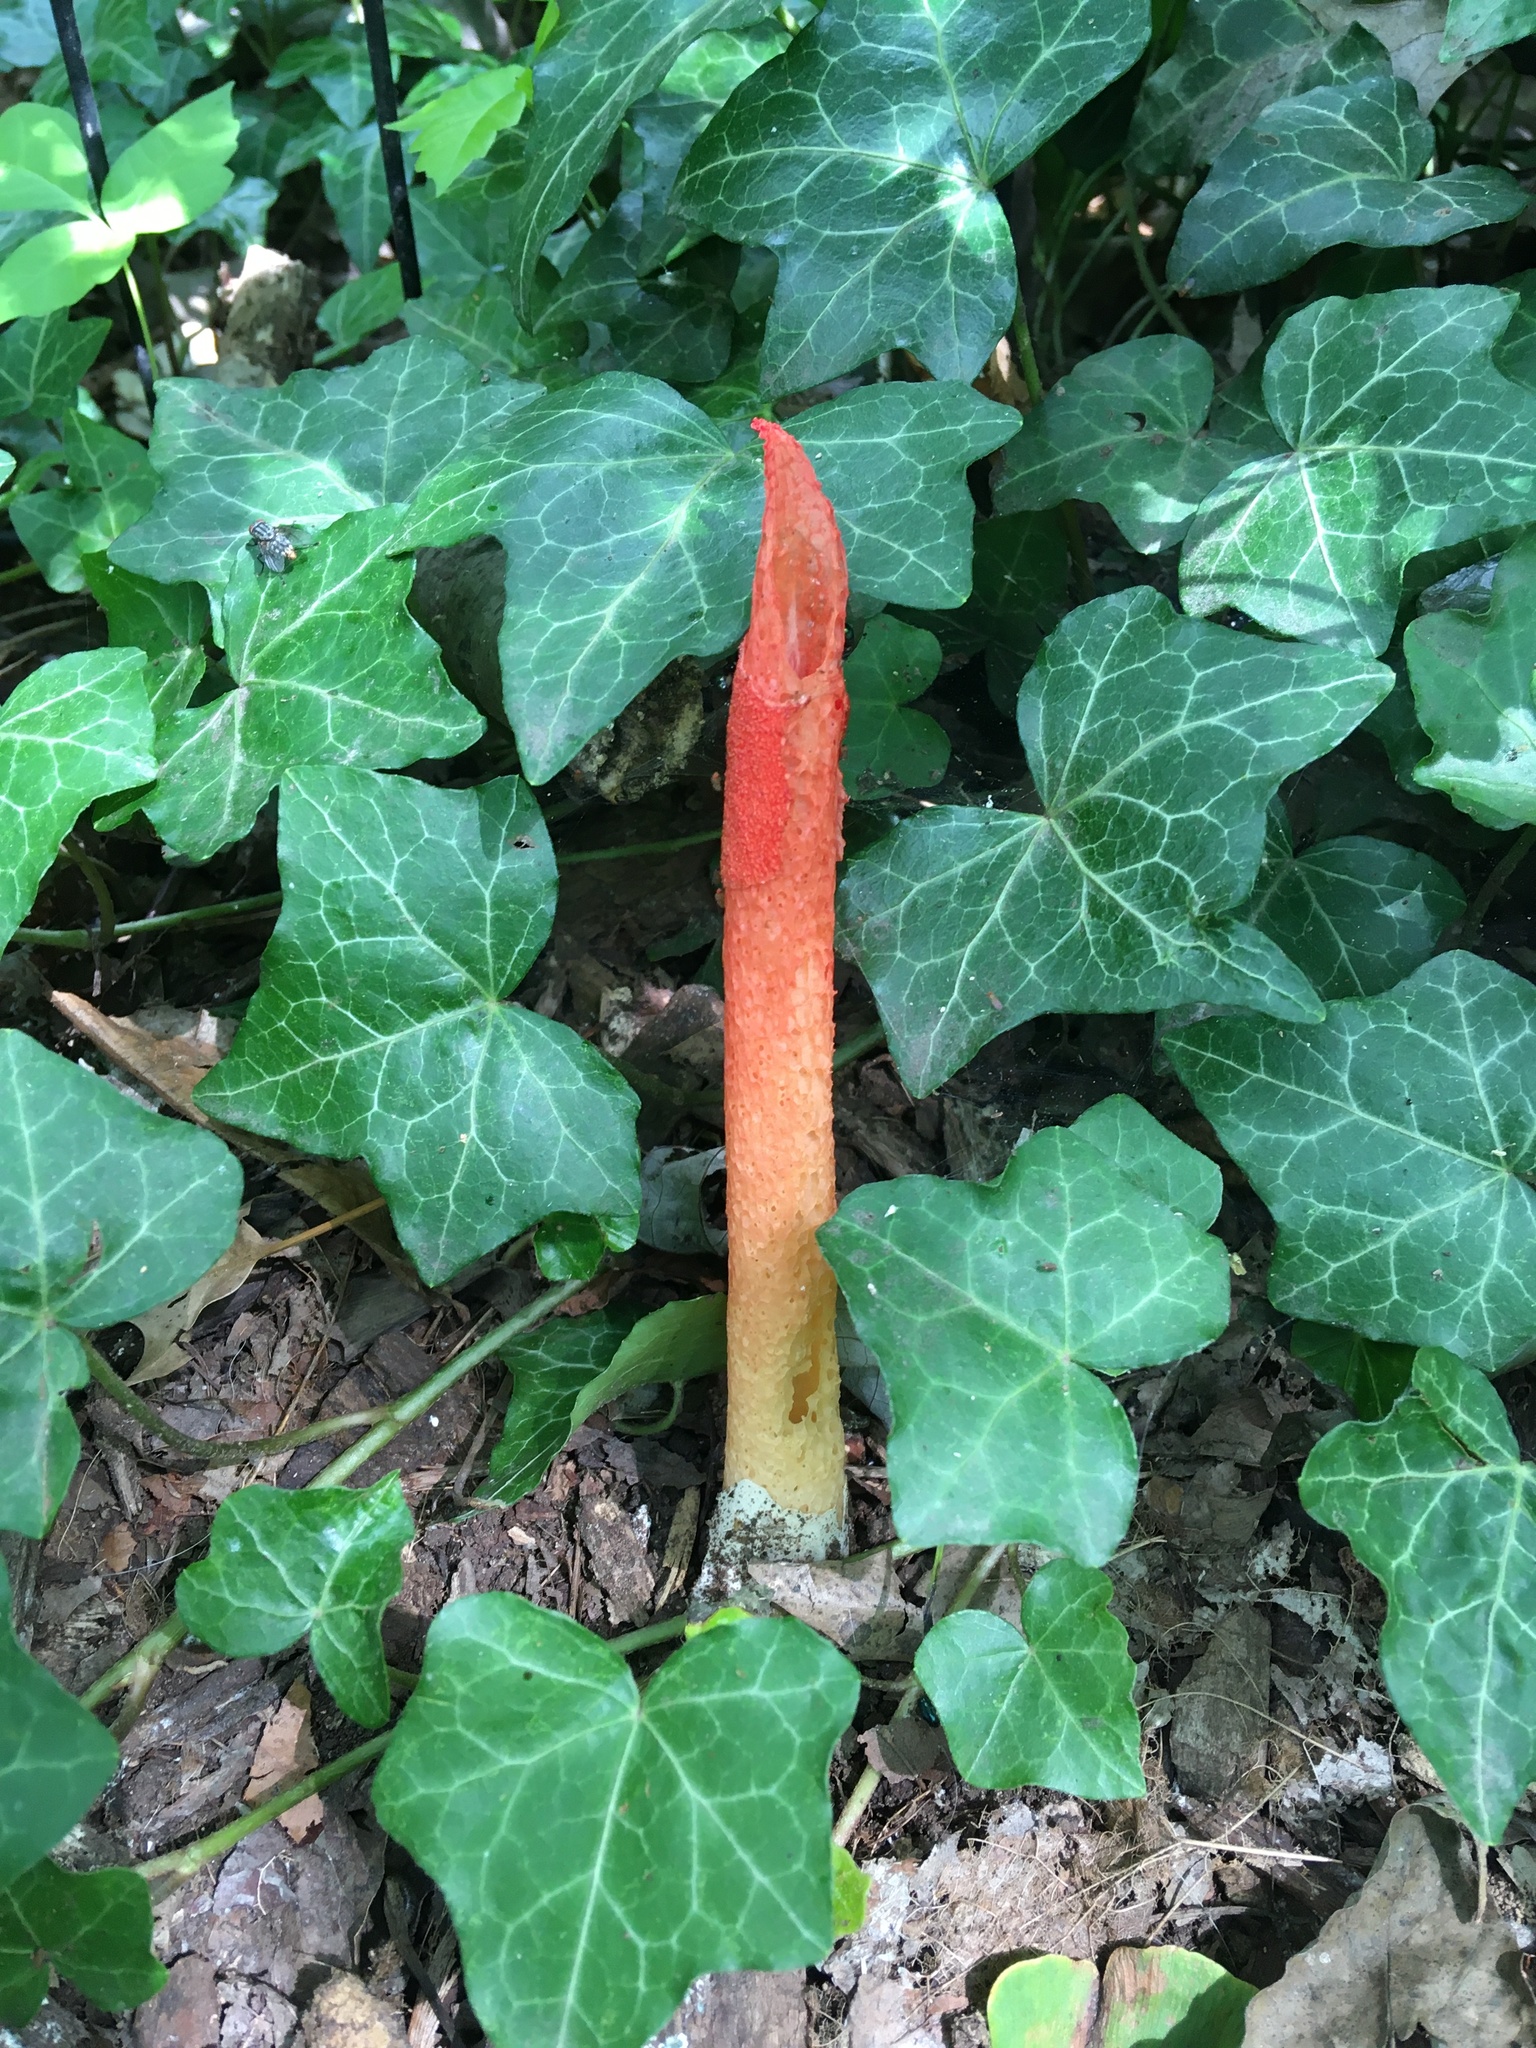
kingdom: Fungi
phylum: Basidiomycota
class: Agaricomycetes
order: Phallales
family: Phallaceae
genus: Phallus
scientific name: Phallus rugulosus
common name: Wrinkly stinkhorn
